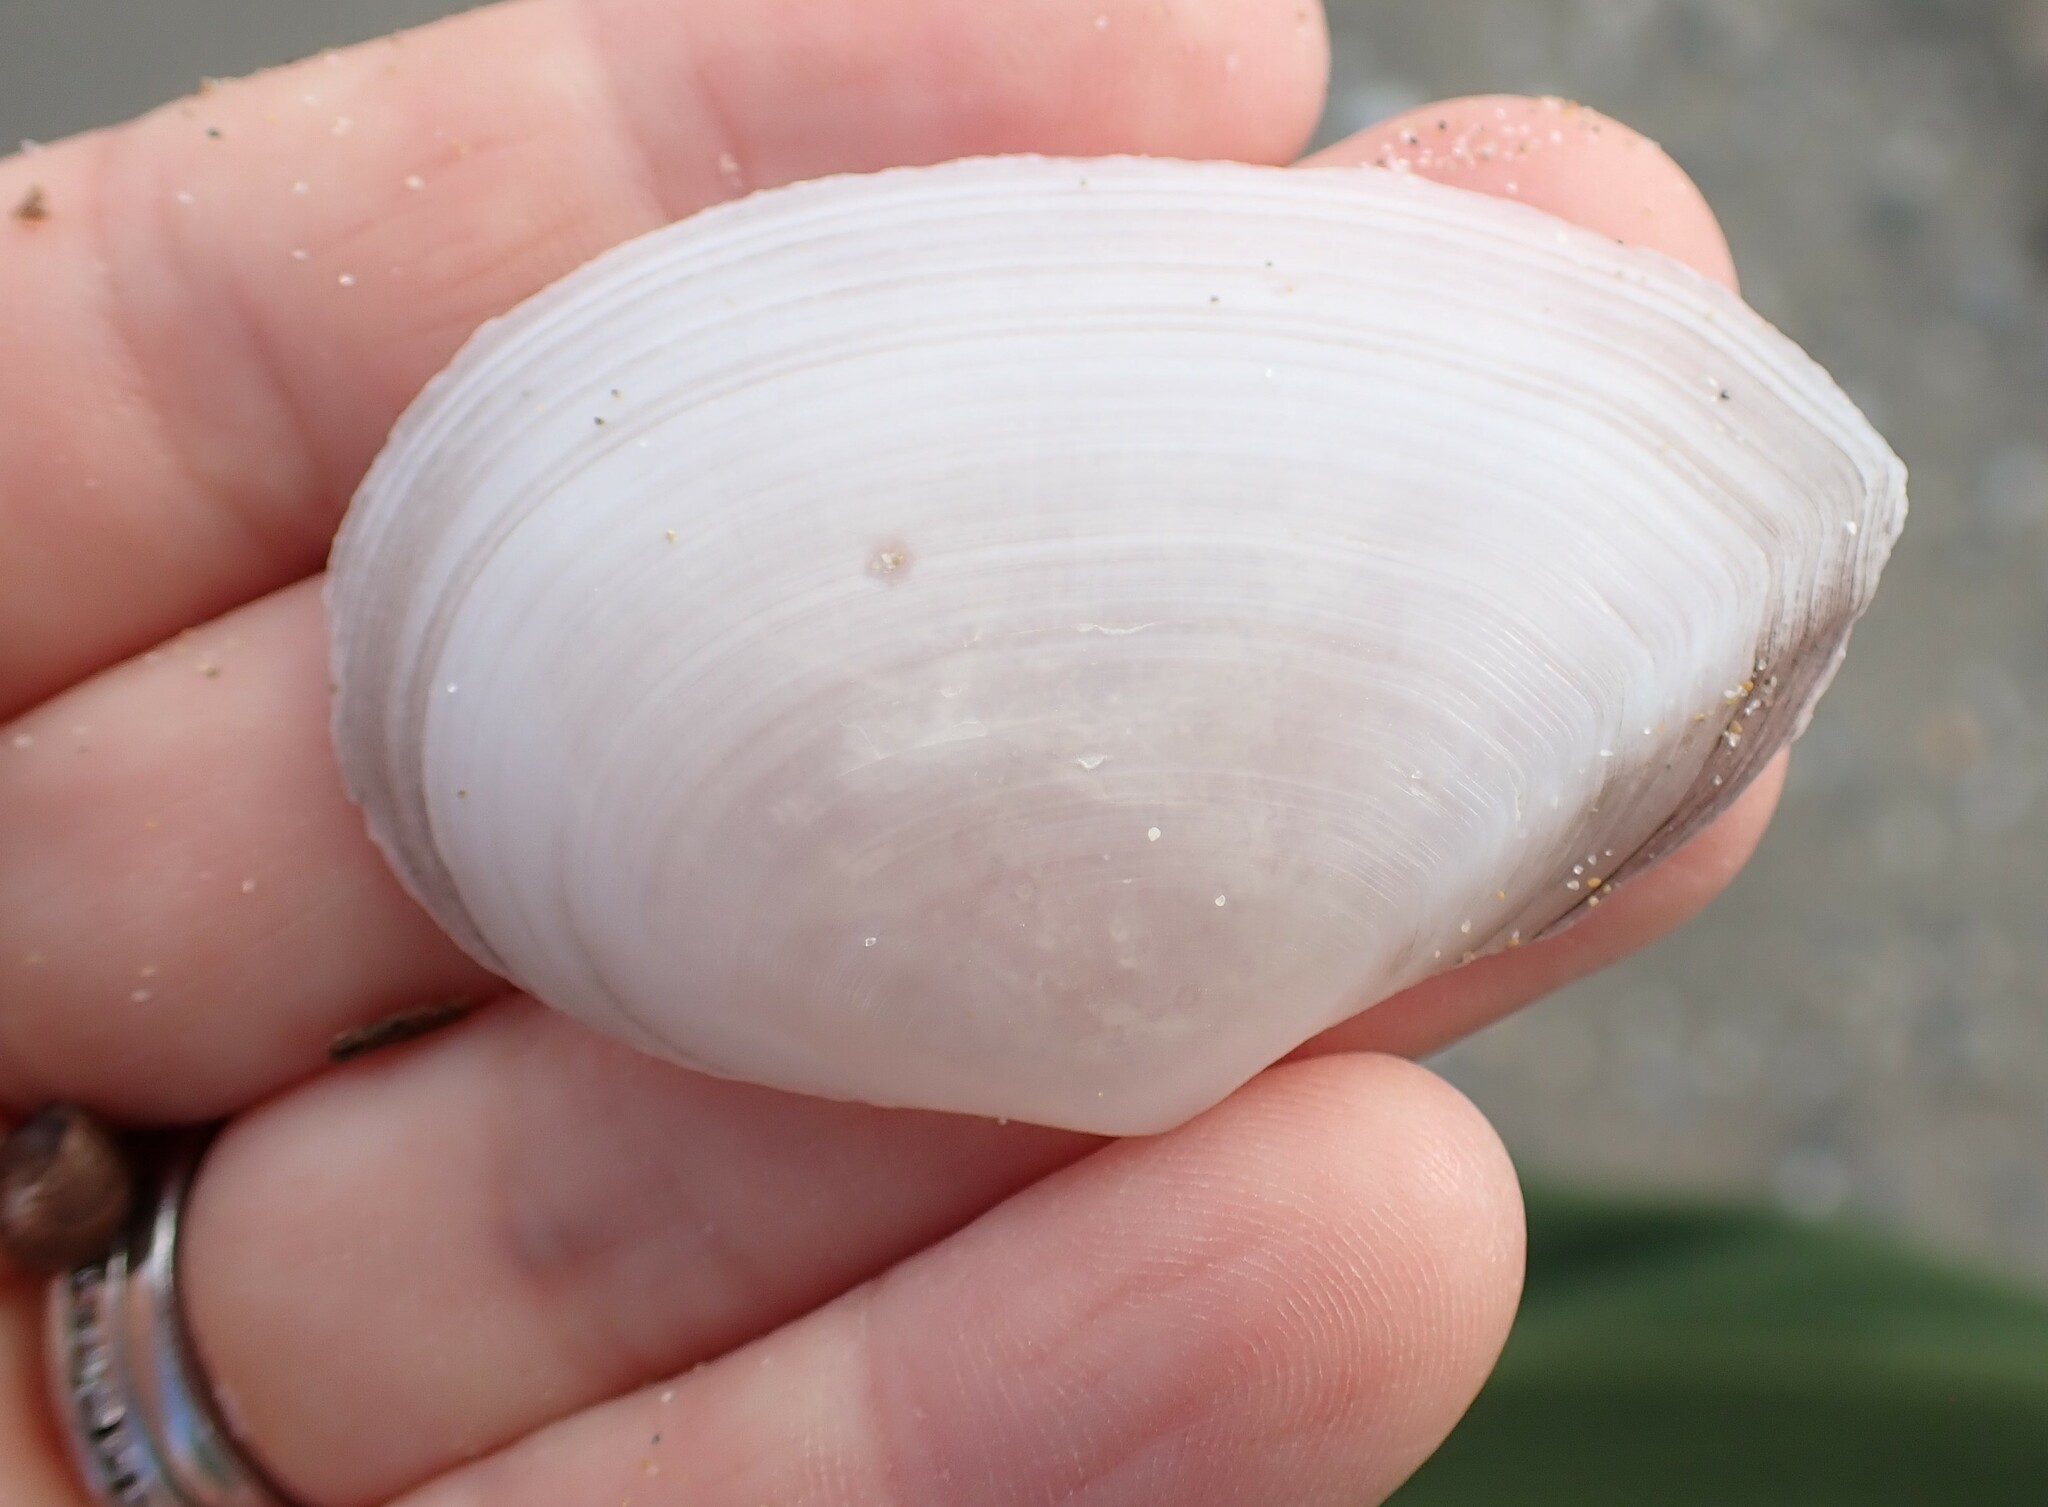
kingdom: Animalia
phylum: Mollusca
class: Bivalvia
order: Cardiida
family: Tellinidae
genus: Peronaea
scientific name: Peronaea planata
